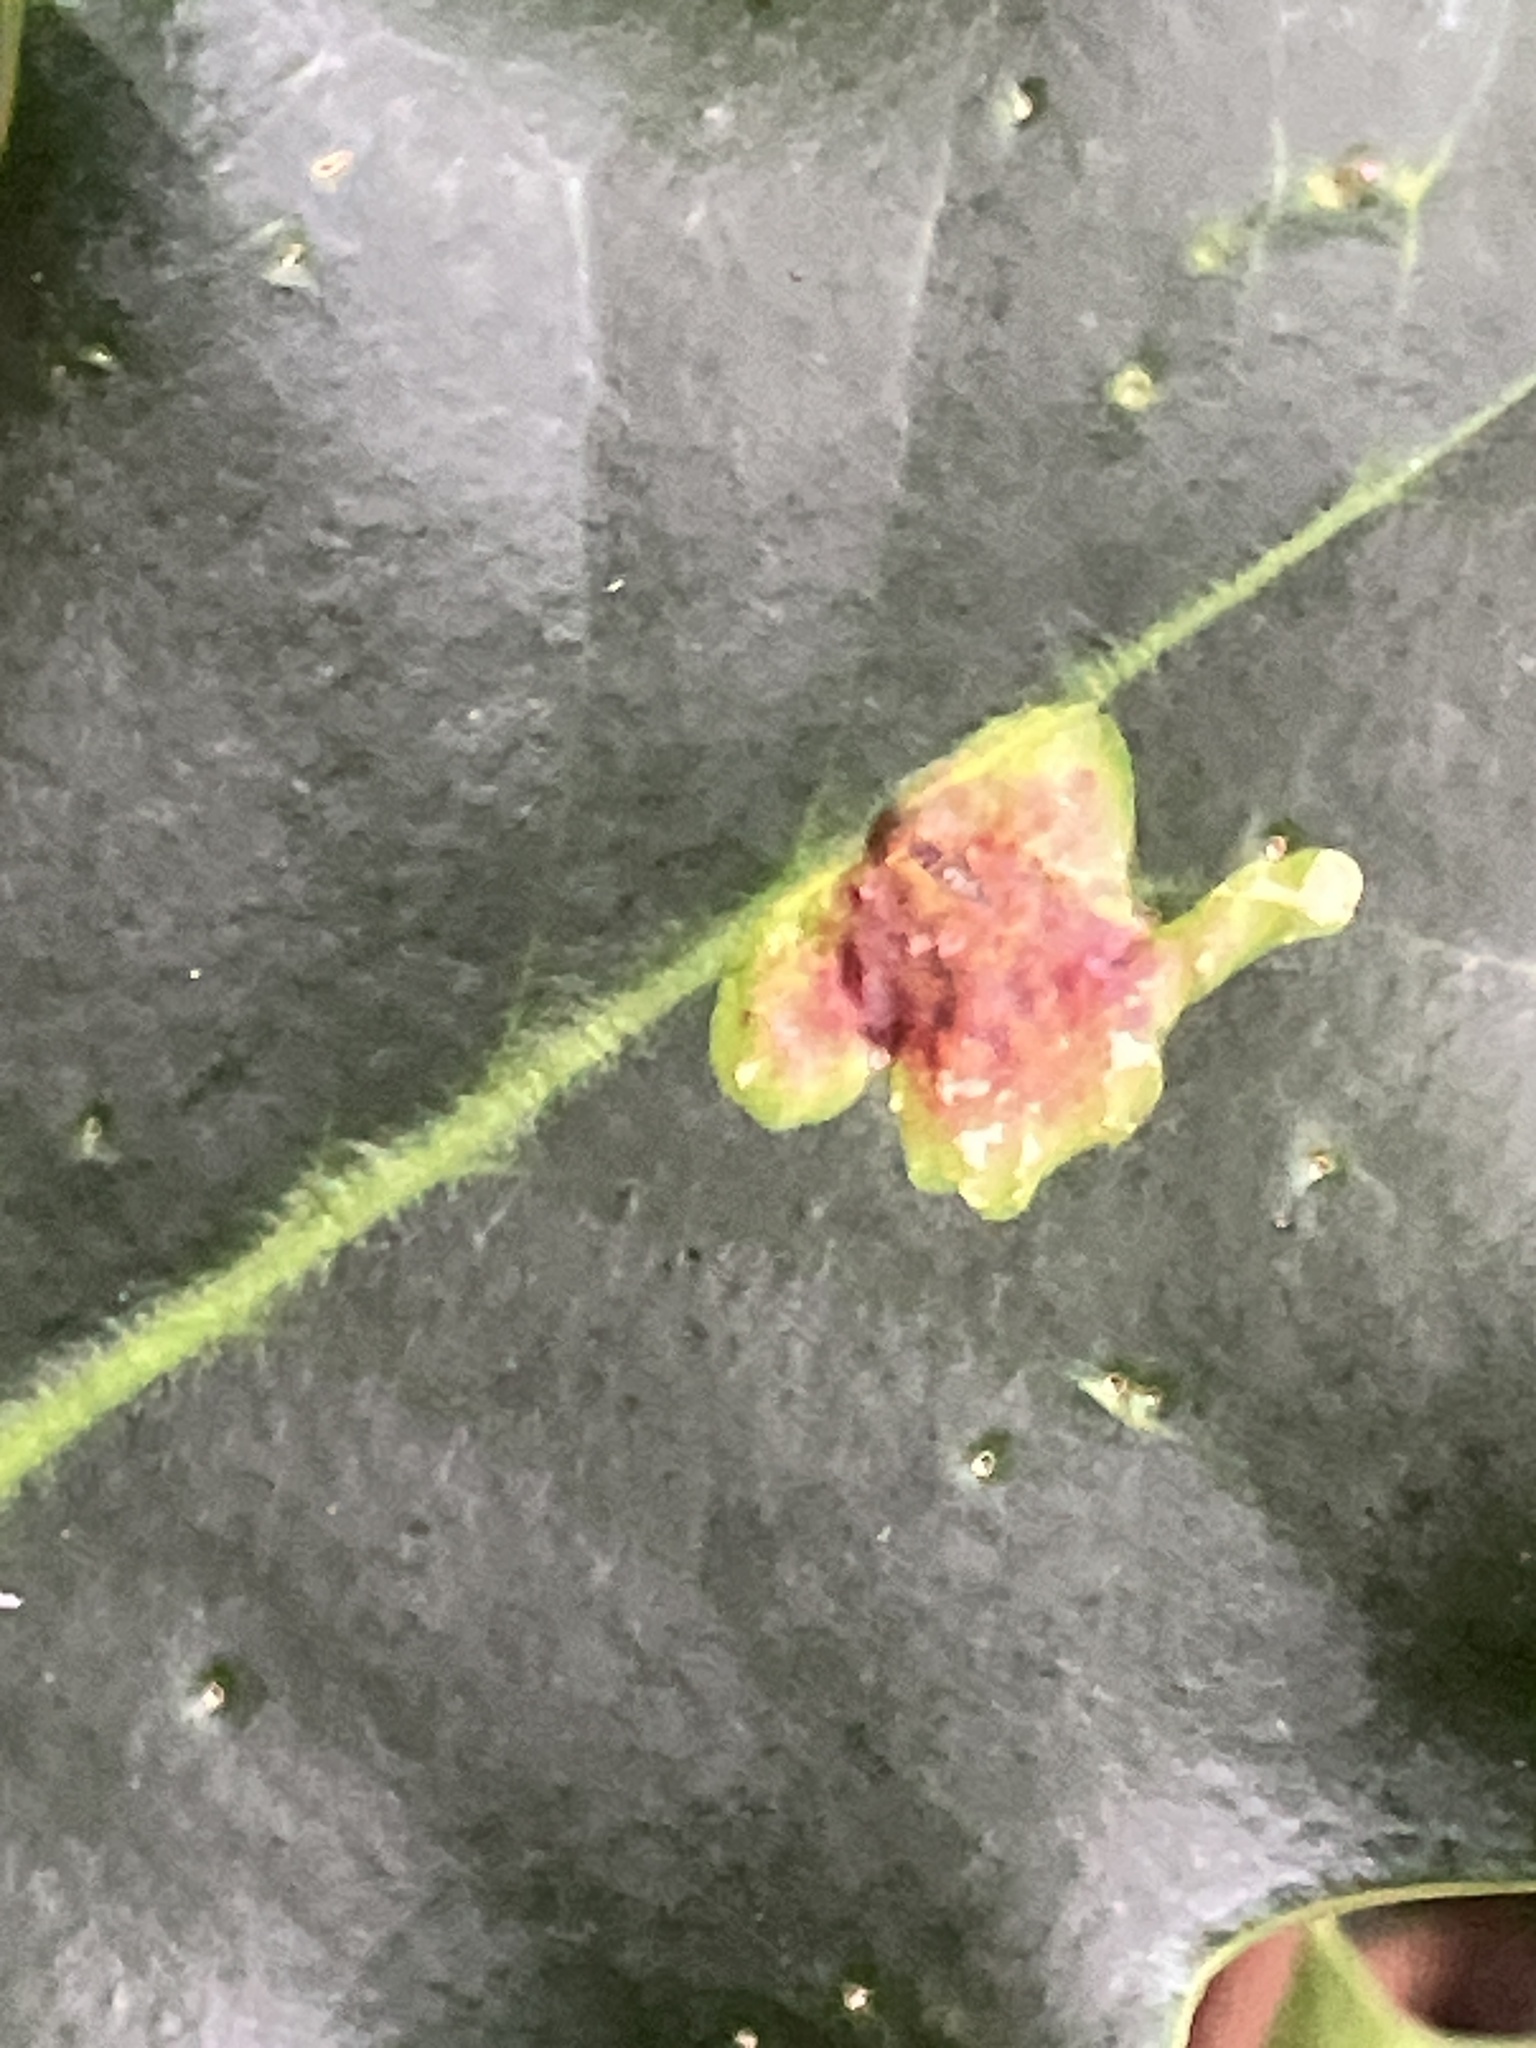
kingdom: Animalia
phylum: Arthropoda
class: Insecta
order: Diptera
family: Agromyzidae
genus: Phytomyza
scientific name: Phytomyza ilicis
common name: Holly leafminer
